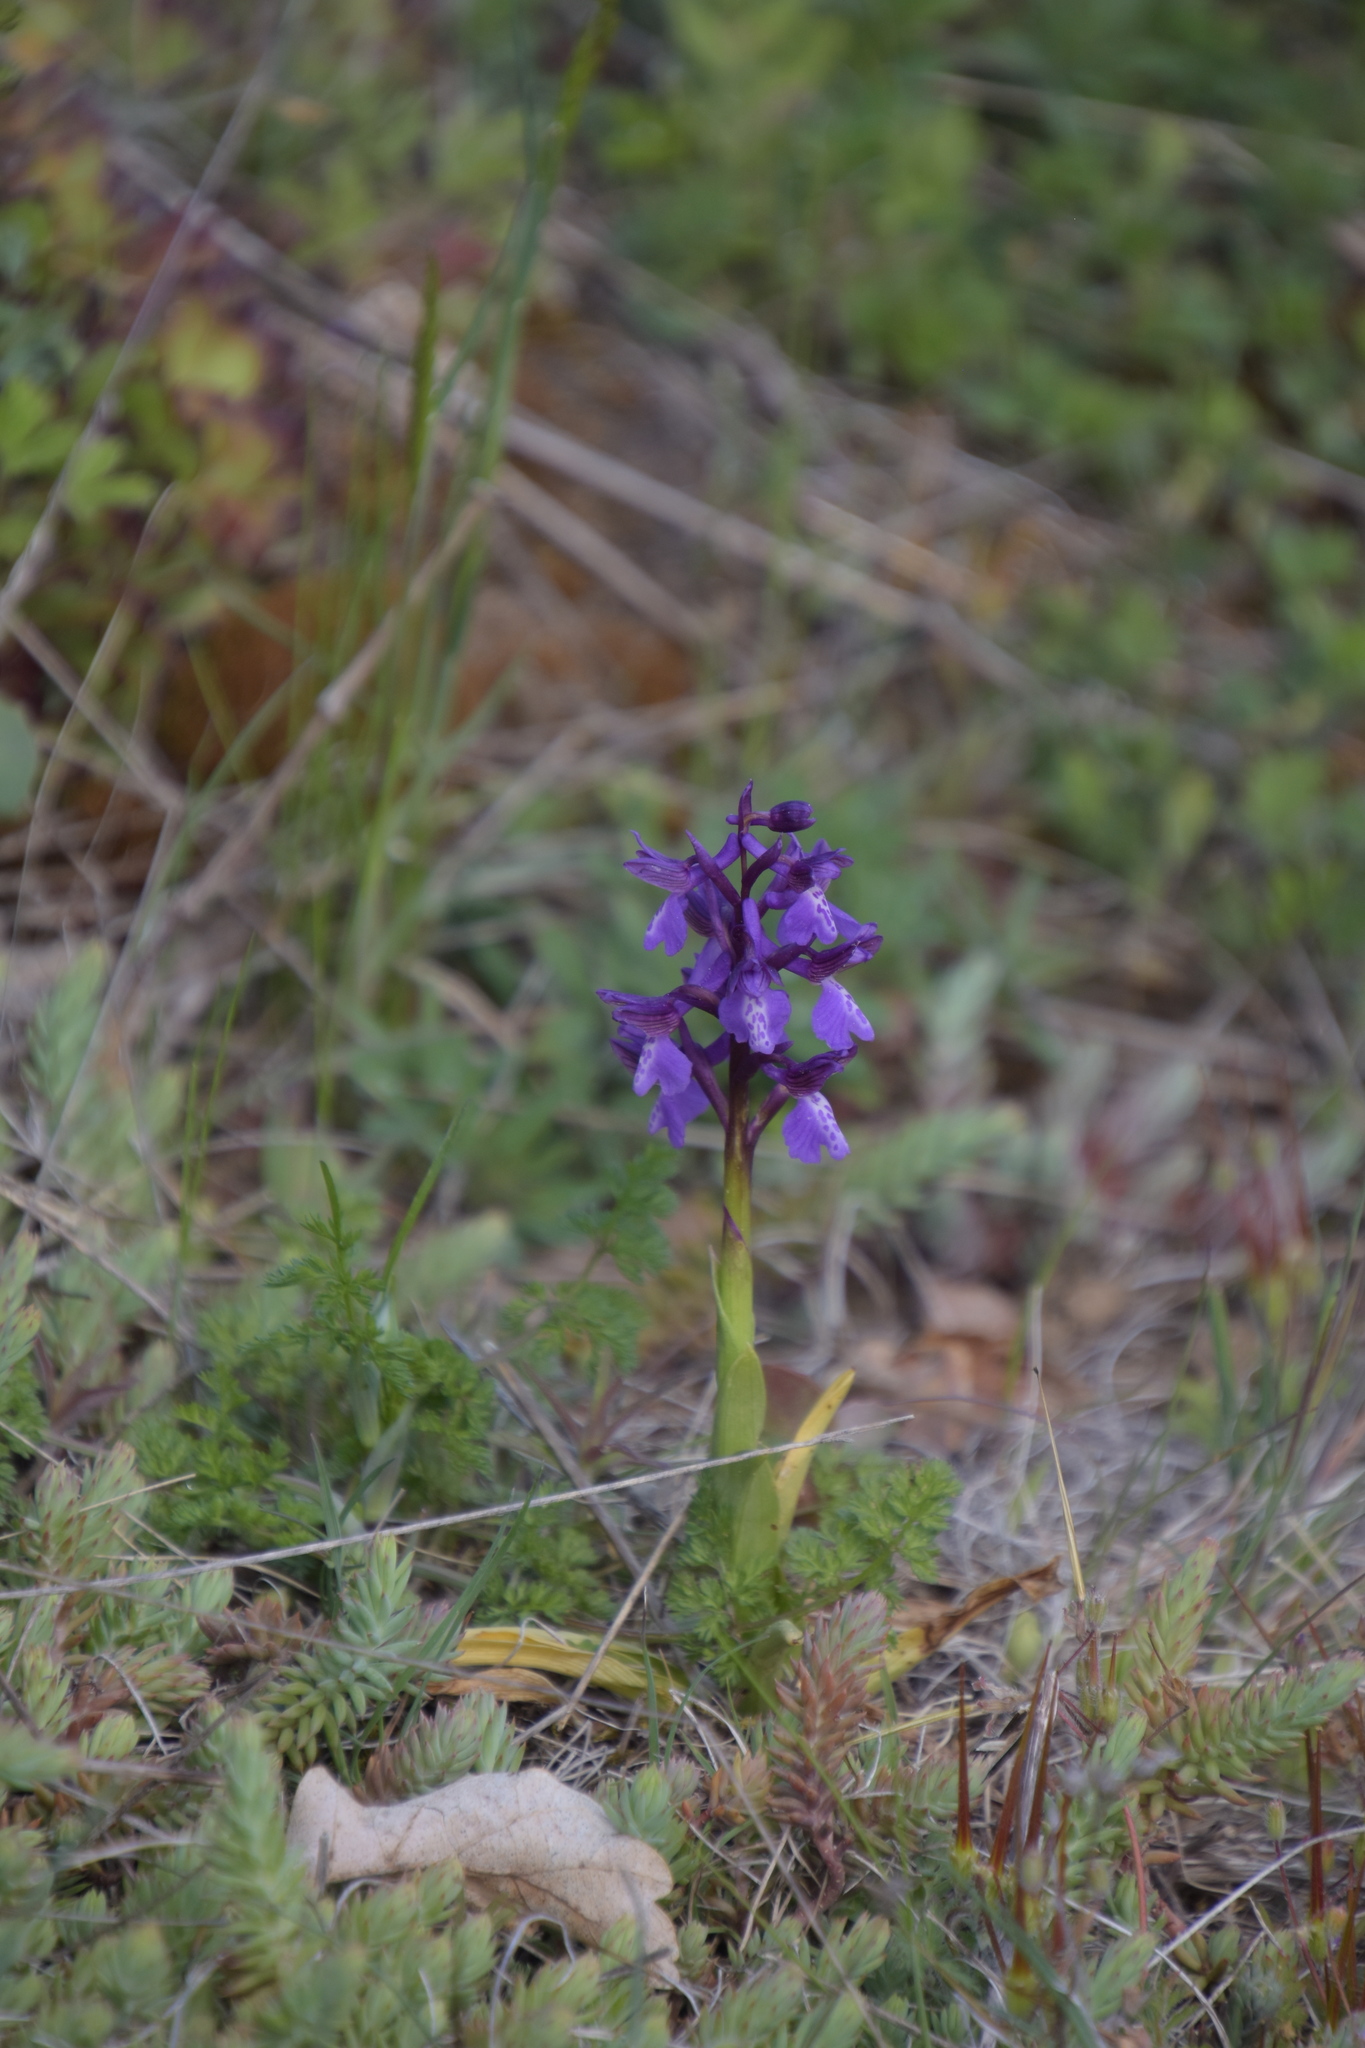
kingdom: Plantae
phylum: Tracheophyta
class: Liliopsida
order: Asparagales
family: Orchidaceae
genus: Anacamptis
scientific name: Anacamptis morio
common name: Green-winged orchid
